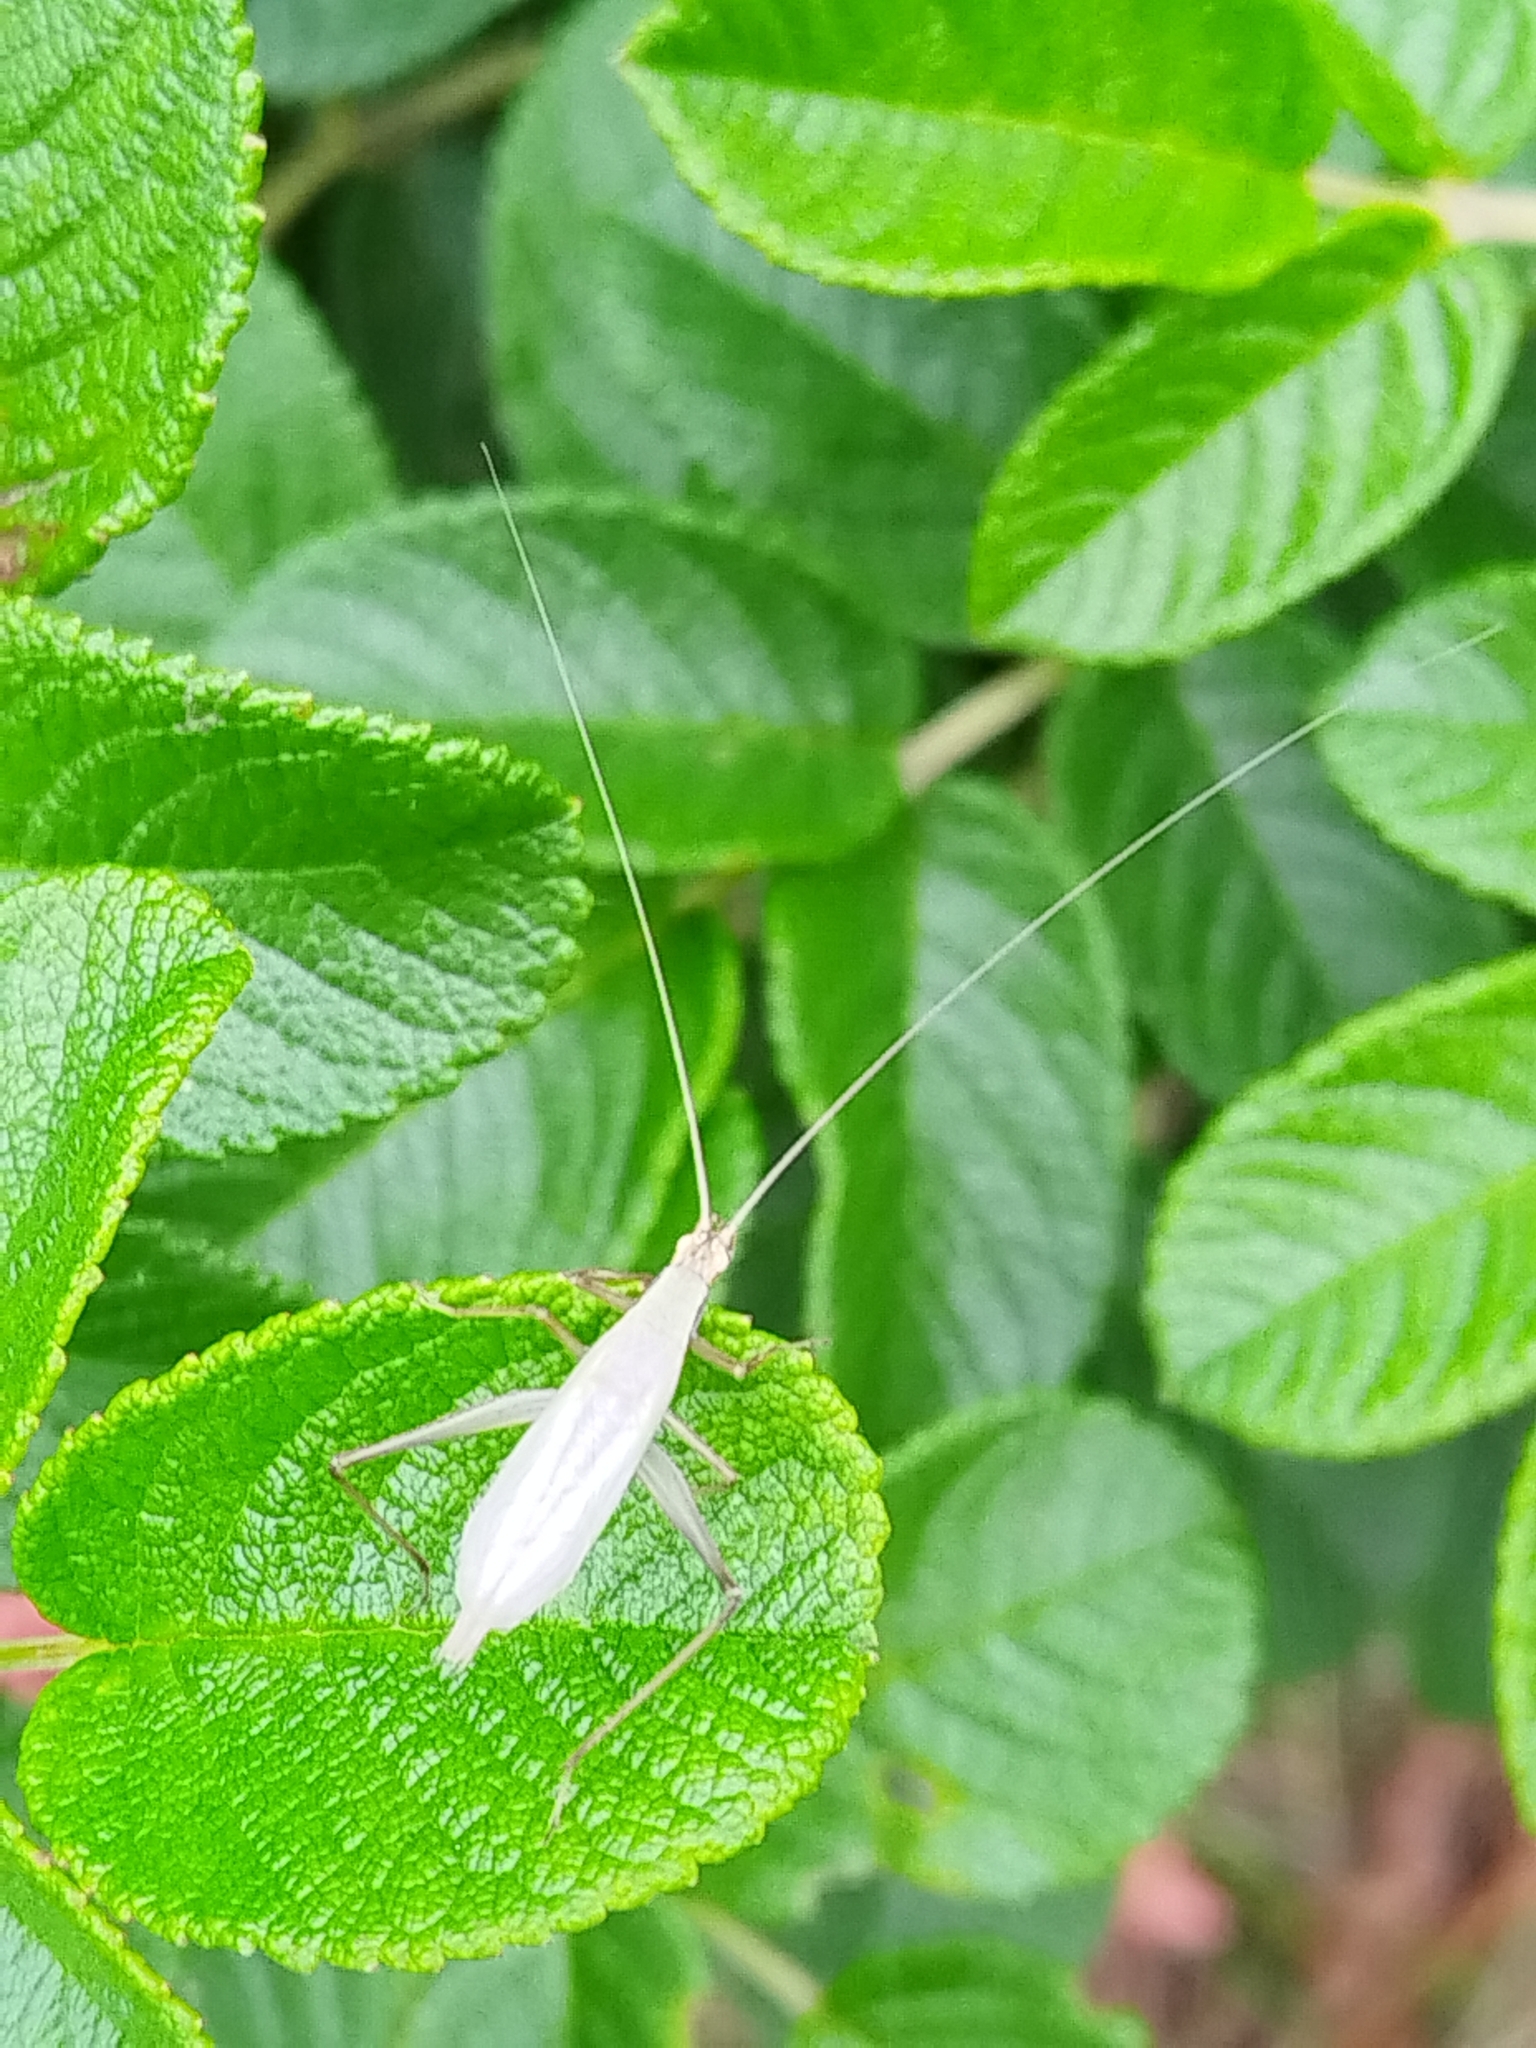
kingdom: Animalia
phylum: Arthropoda
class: Insecta
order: Orthoptera
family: Gryllidae
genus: Oecanthus
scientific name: Oecanthus longicauda
